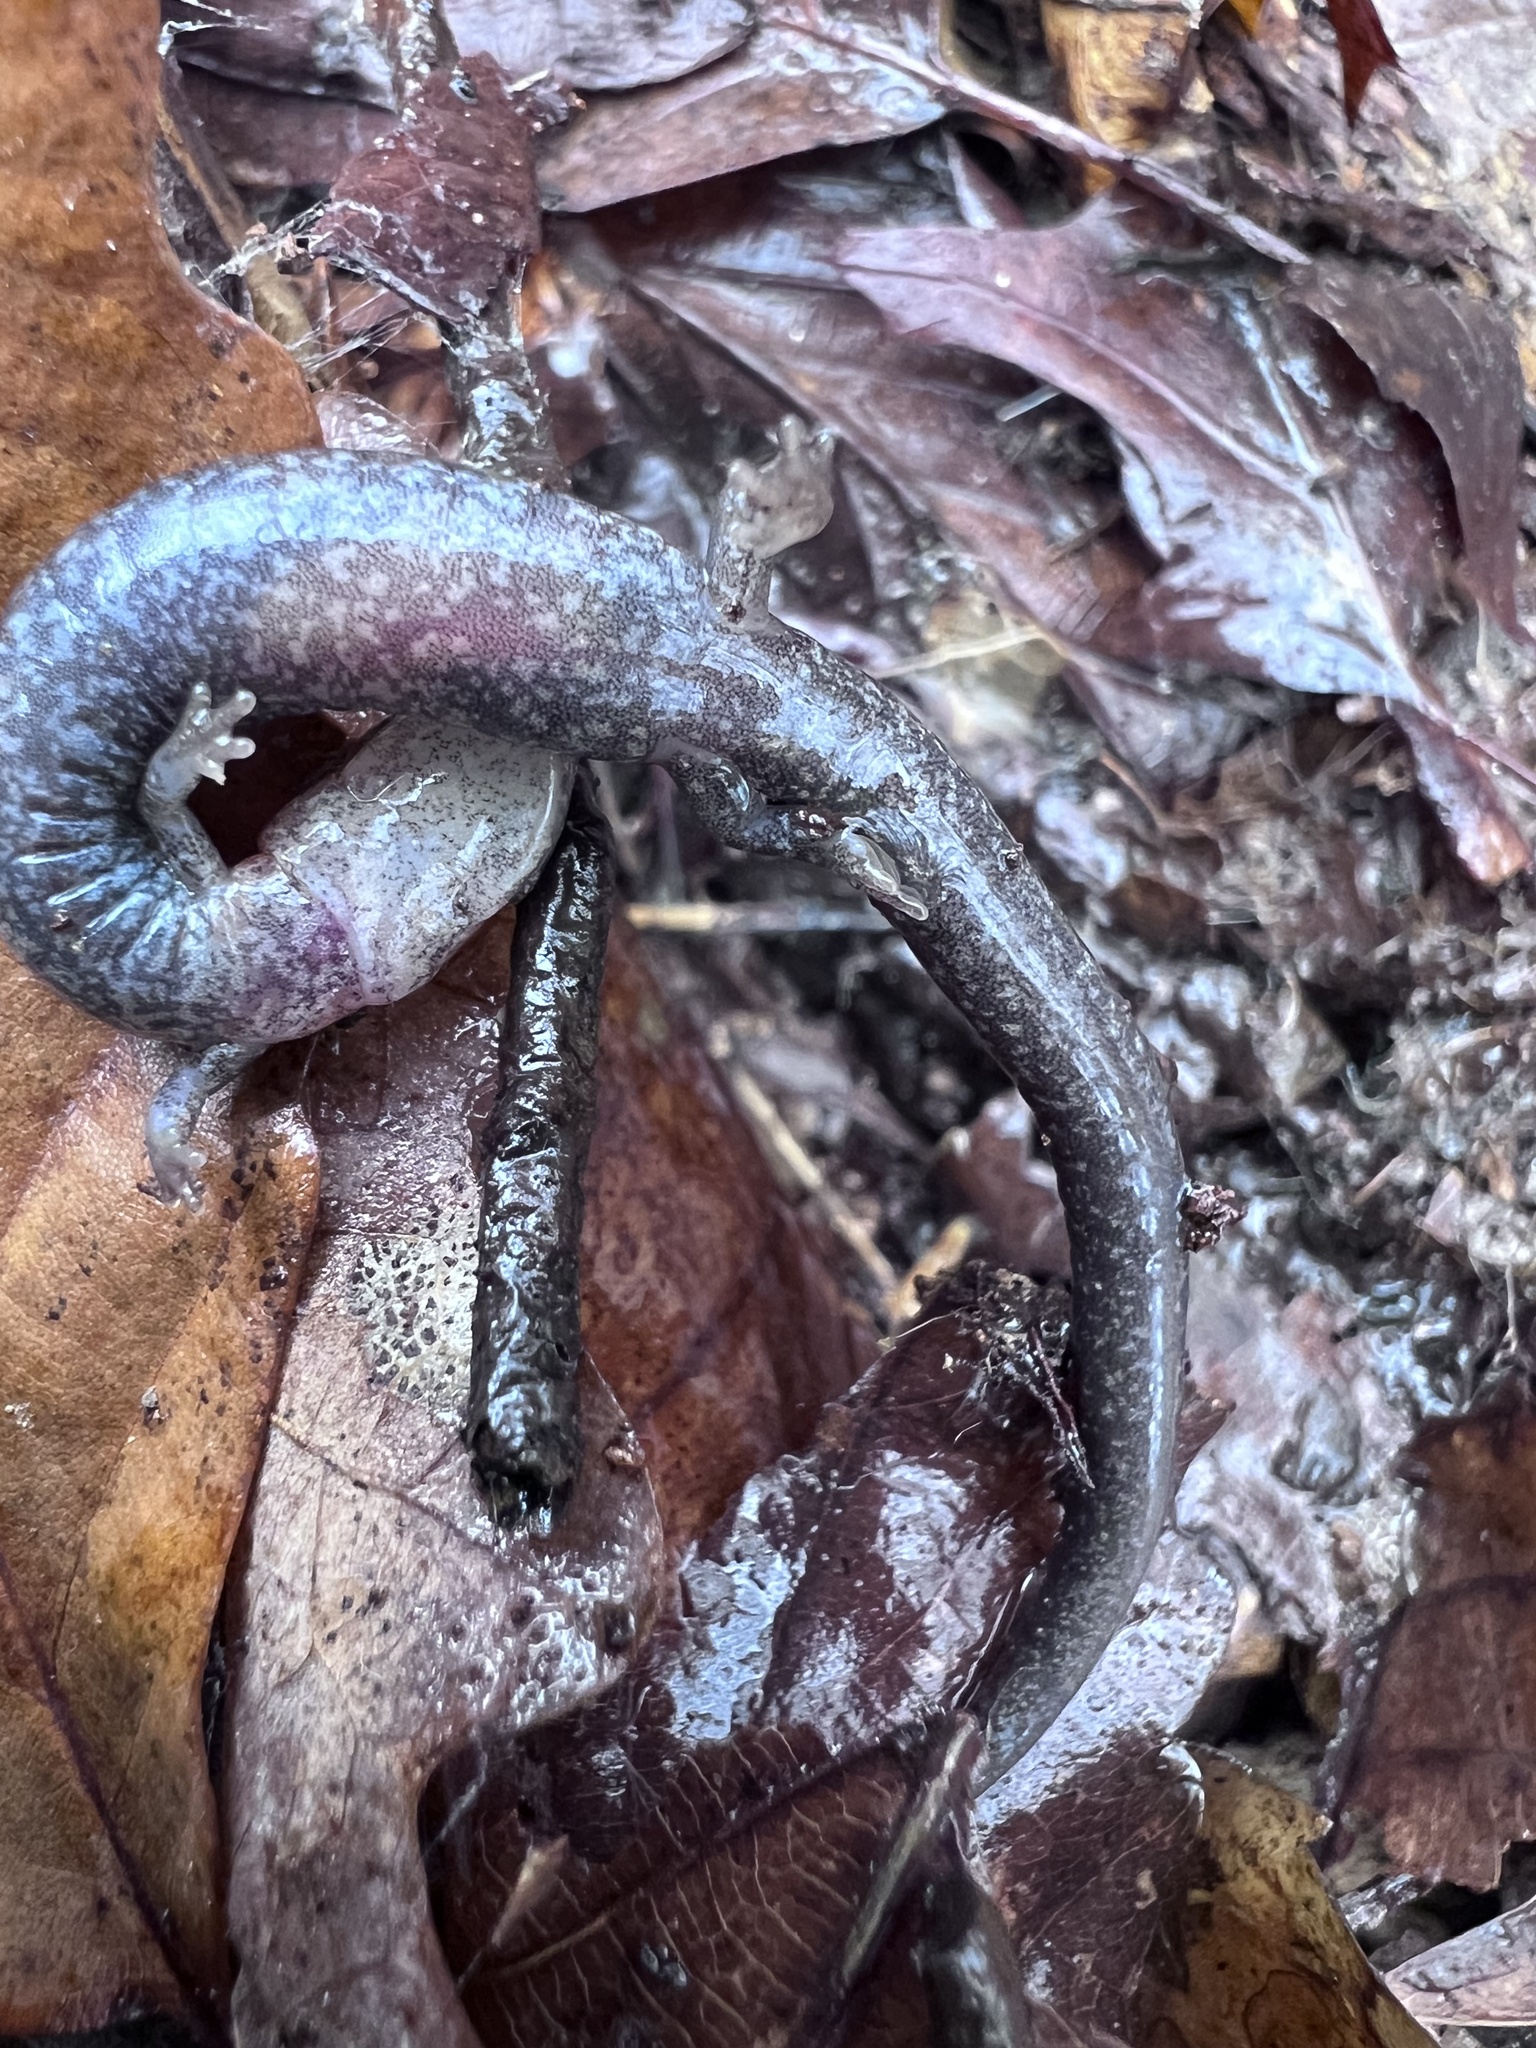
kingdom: Animalia
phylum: Chordata
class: Amphibia
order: Caudata
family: Plethodontidae
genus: Plethodon
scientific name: Plethodon cinereus
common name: Redback salamander
